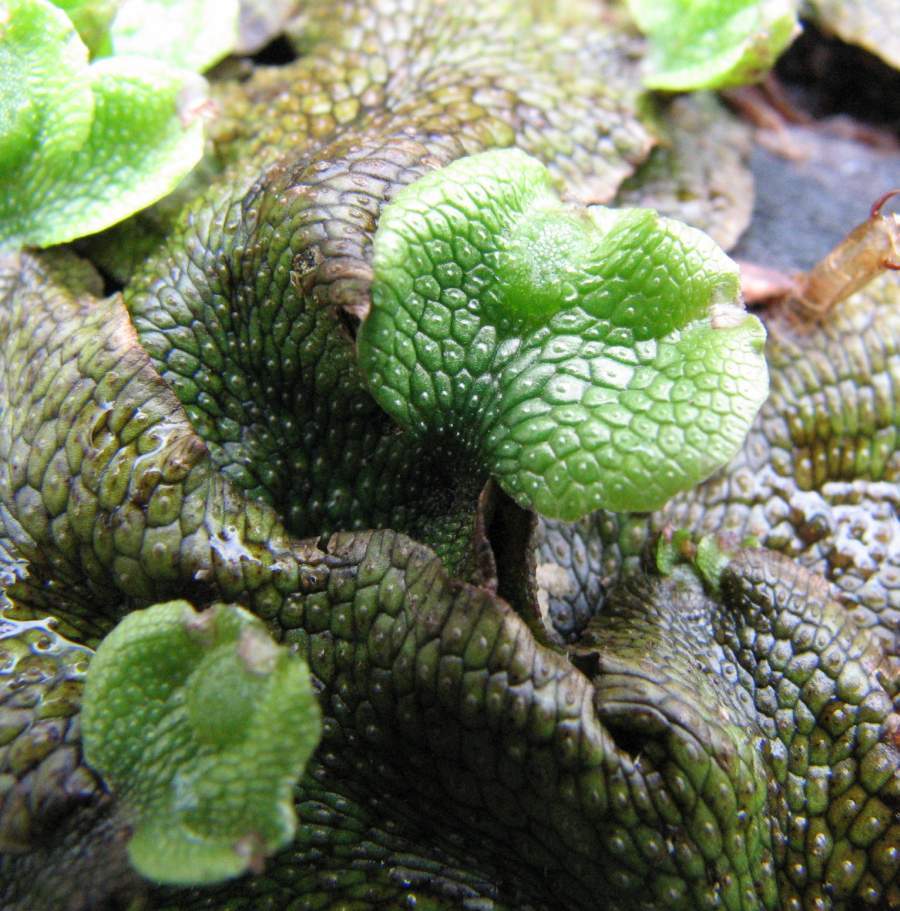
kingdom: Plantae
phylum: Marchantiophyta
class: Marchantiopsida
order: Marchantiales
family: Conocephalaceae
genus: Conocephalum
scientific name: Conocephalum salebrosum
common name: Cat-tongue liverwort
